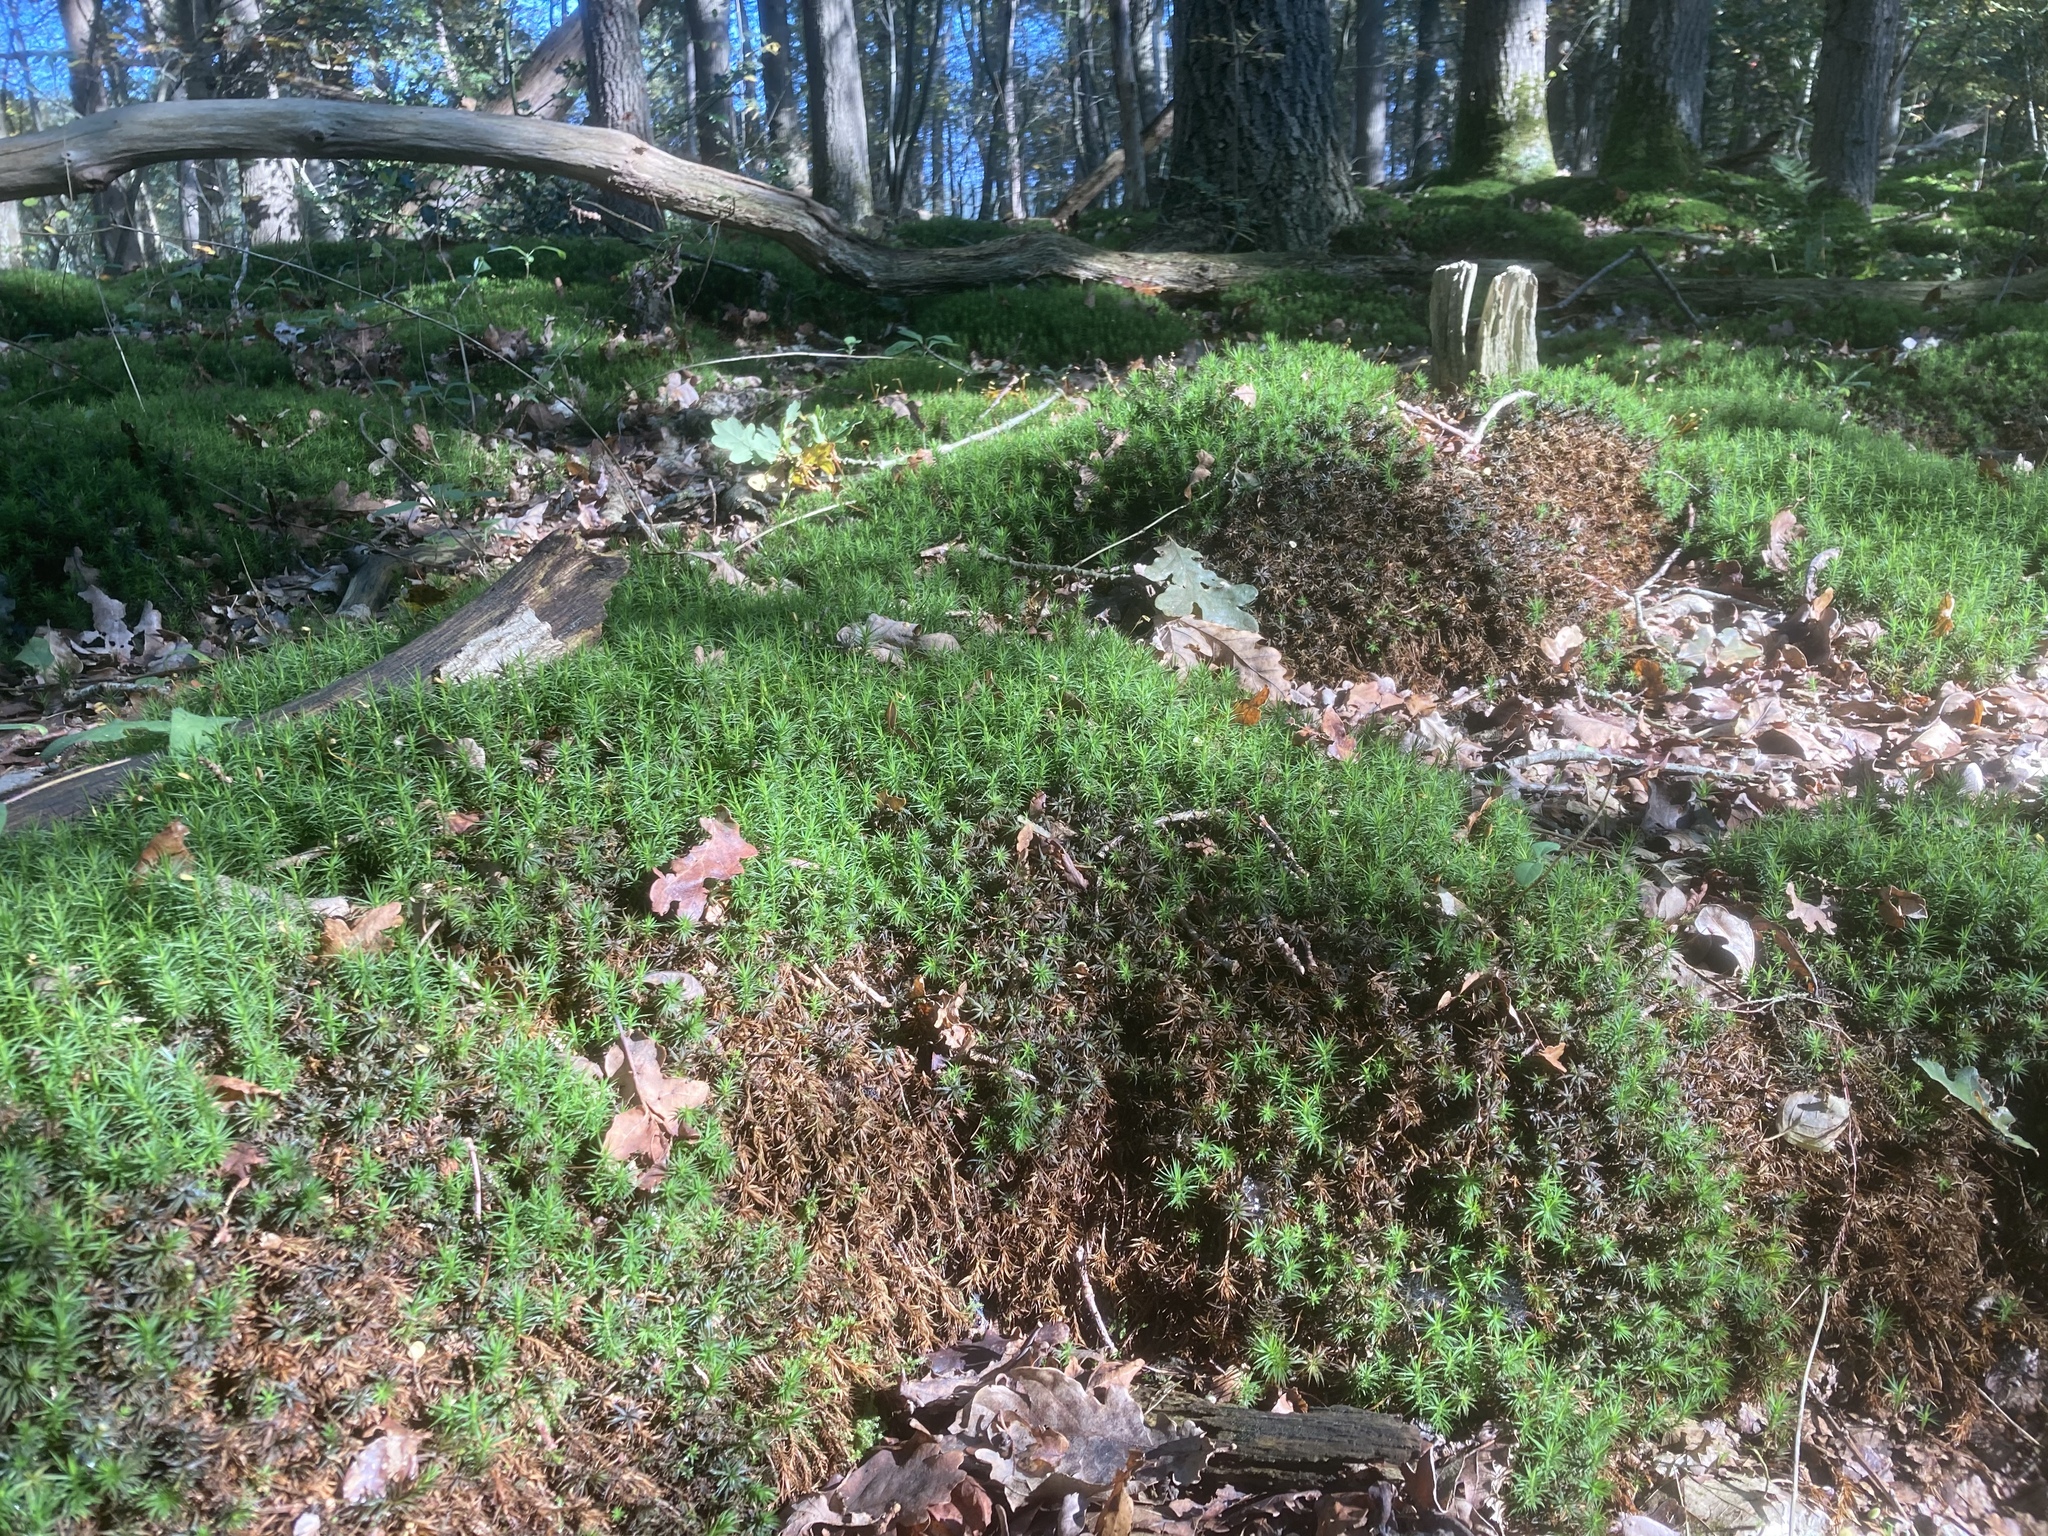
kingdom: Plantae
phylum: Bryophyta
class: Polytrichopsida
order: Polytrichales
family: Polytrichaceae
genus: Polytrichum
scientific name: Polytrichum formosum
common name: Bank haircap moss
